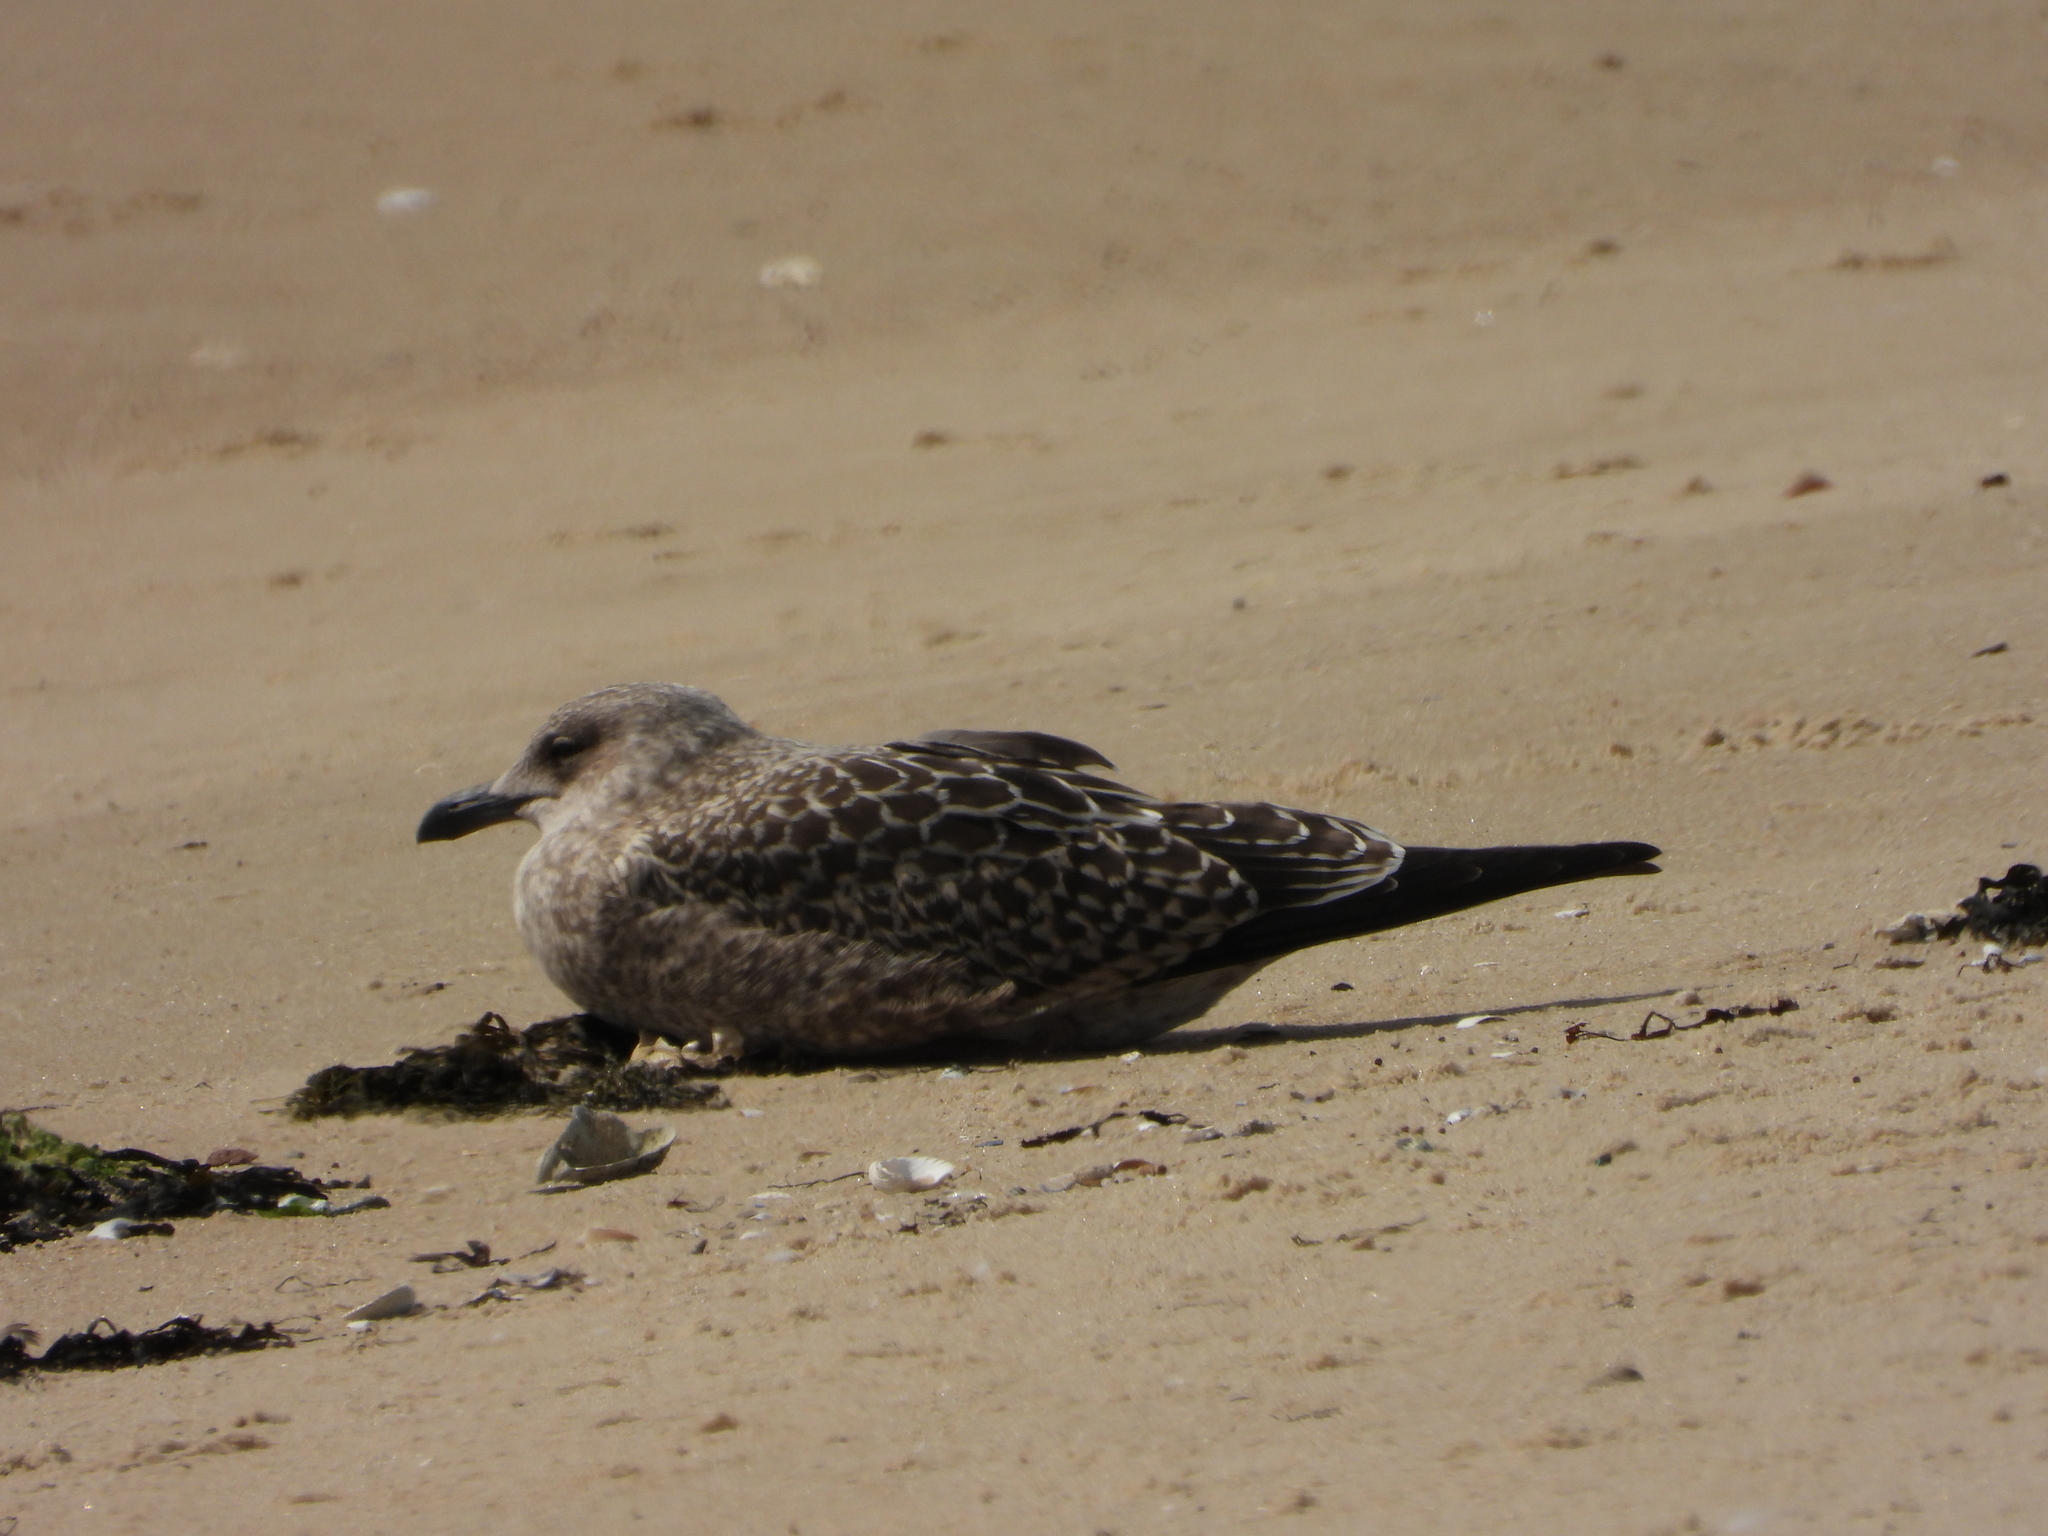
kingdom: Animalia
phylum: Chordata
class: Aves
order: Charadriiformes
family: Laridae
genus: Larus
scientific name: Larus argentatus
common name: Herring gull
